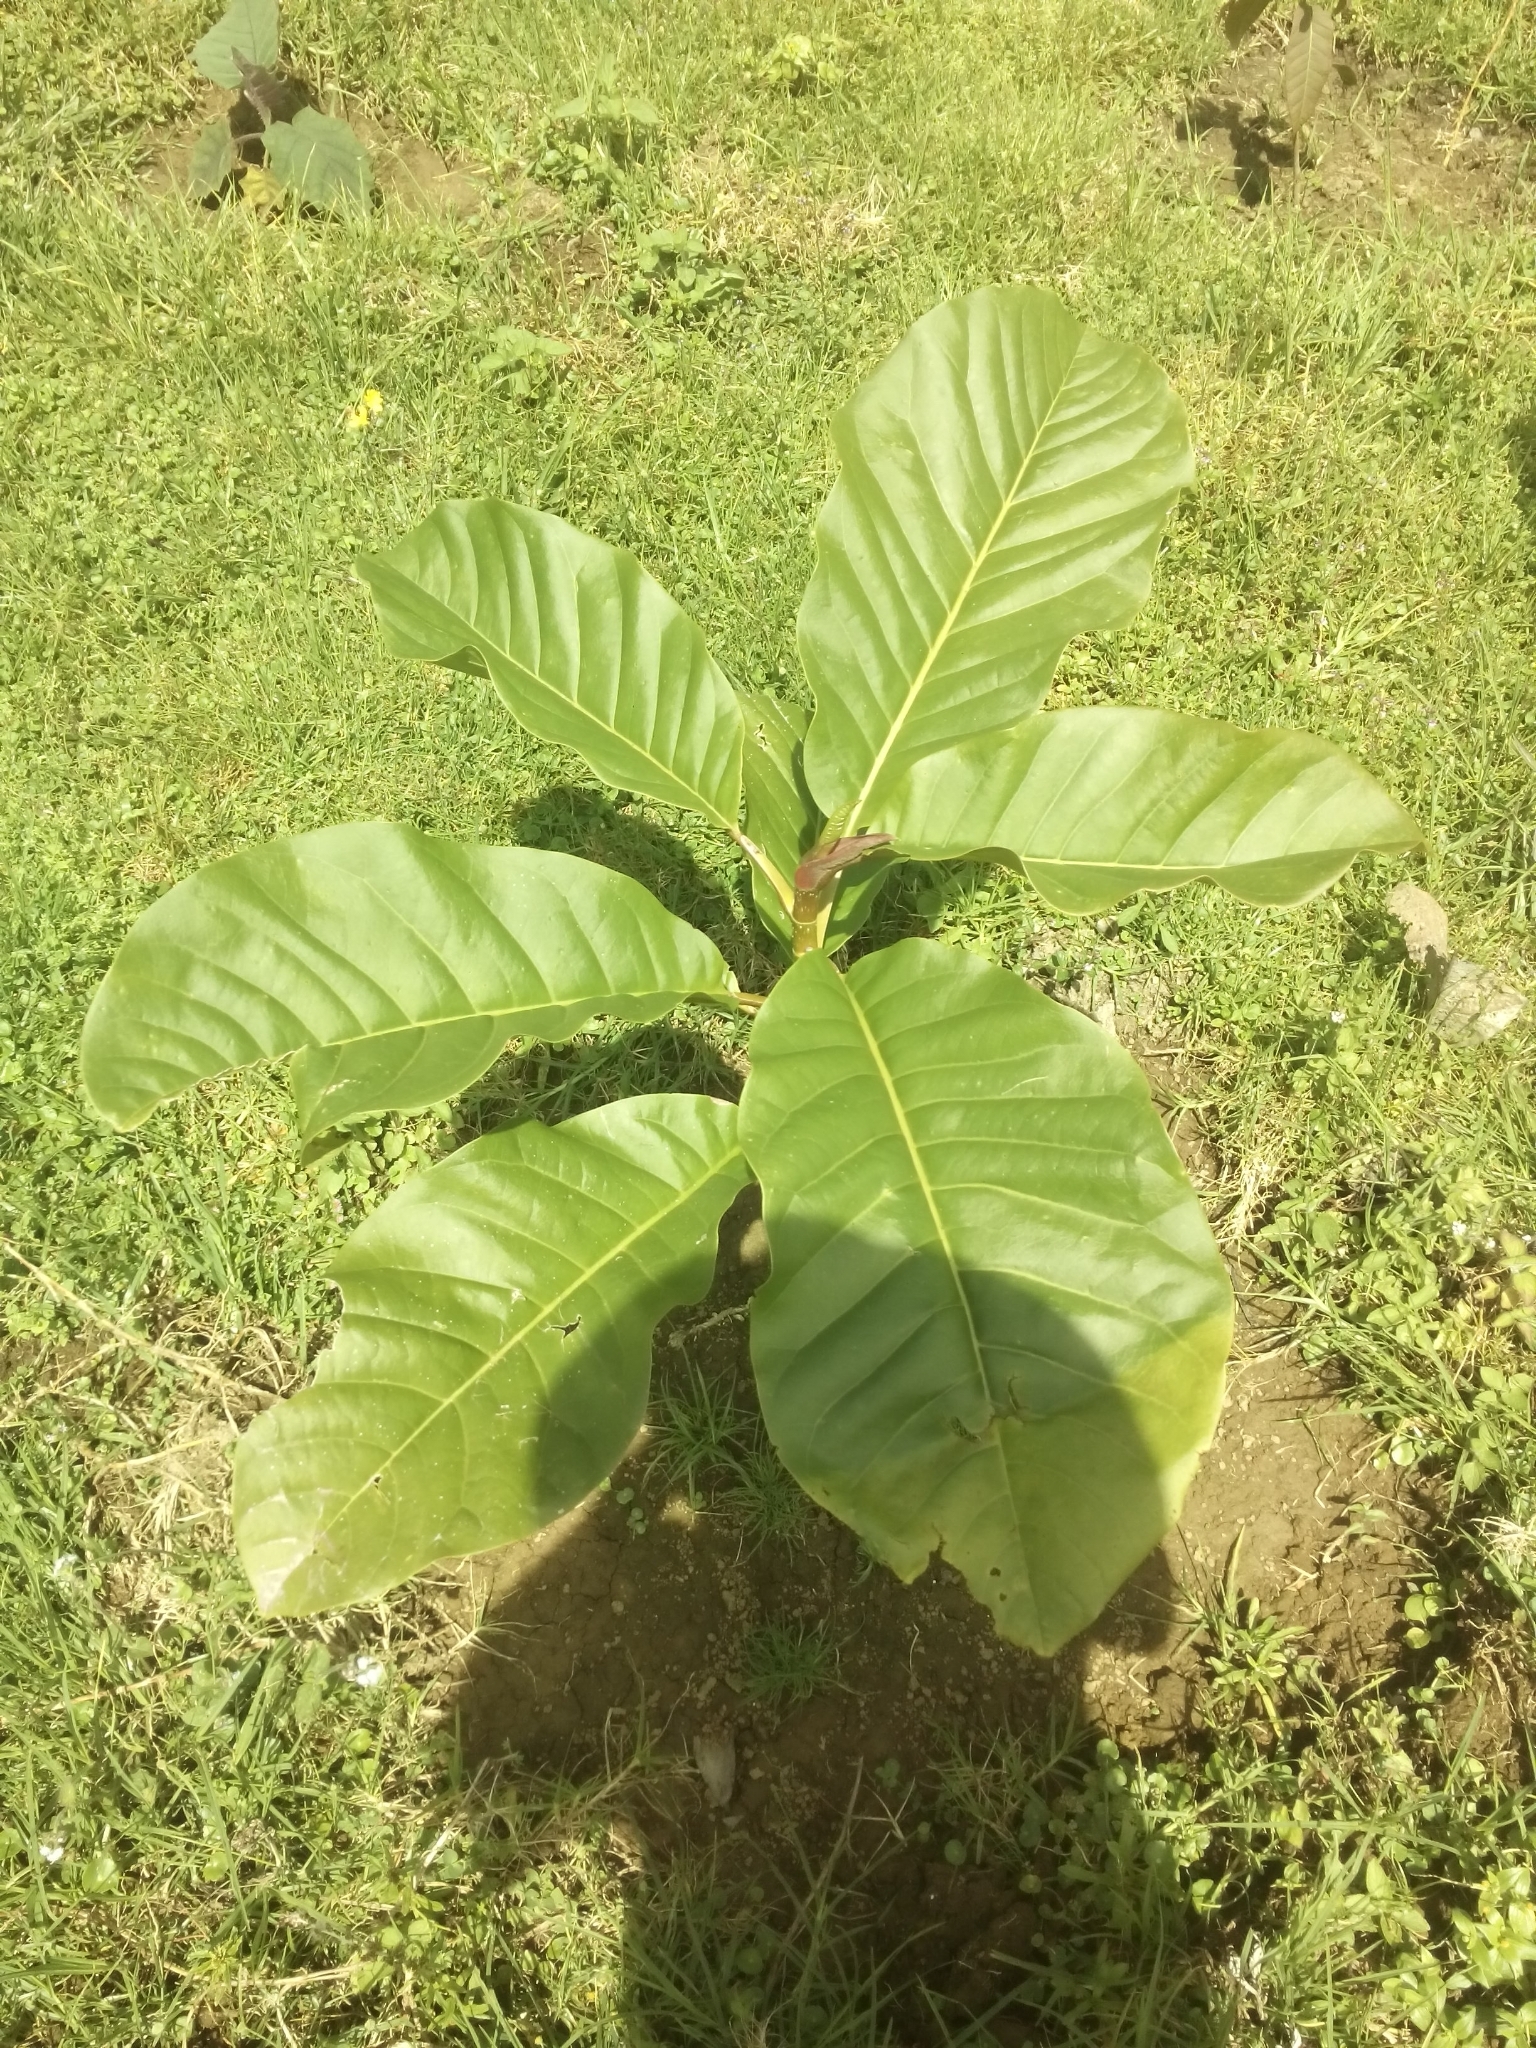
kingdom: Plantae
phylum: Tracheophyta
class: Magnoliopsida
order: Magnoliales
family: Magnoliaceae
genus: Magnolia
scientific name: Magnolia hernandezii
